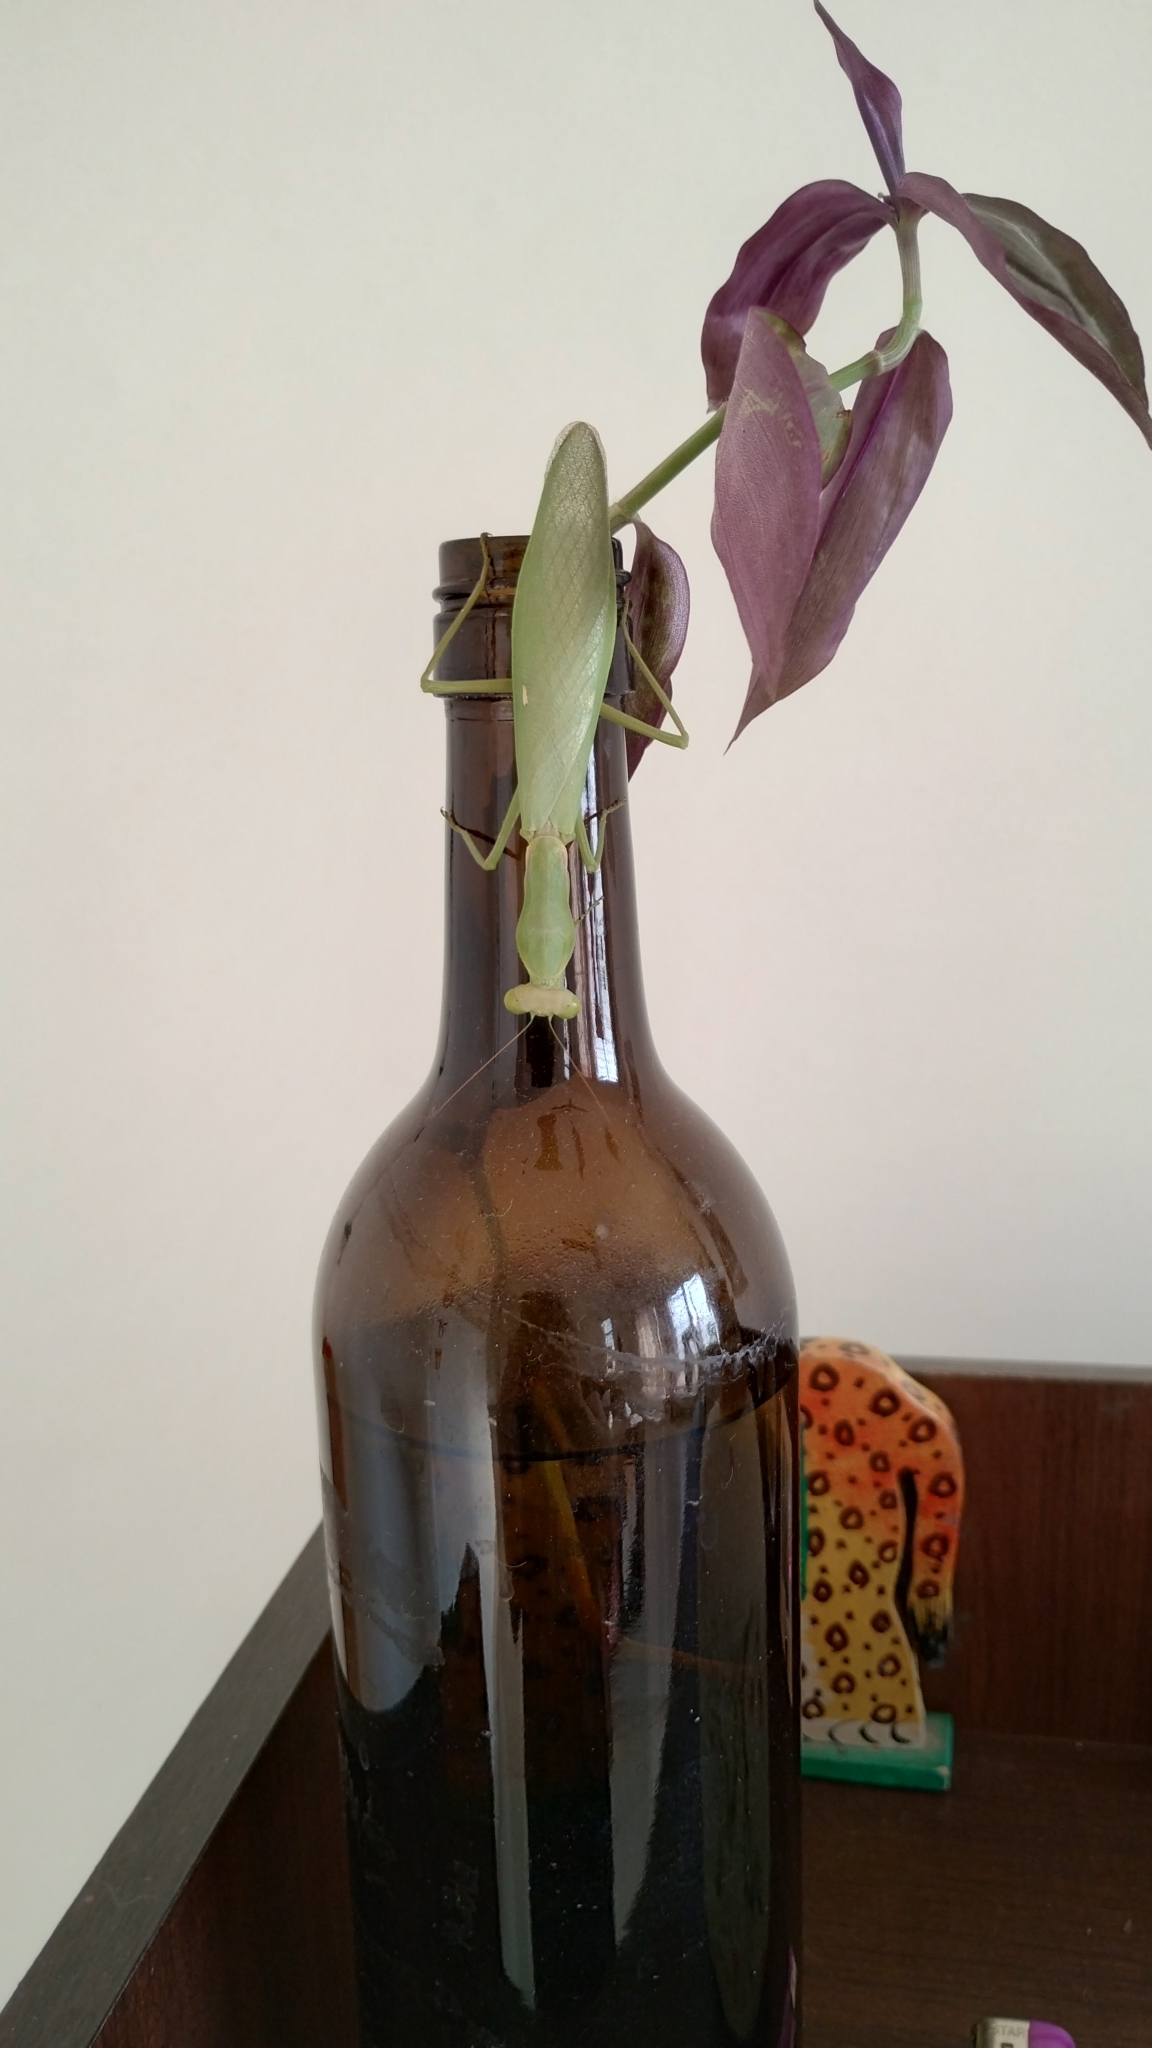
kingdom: Animalia
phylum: Arthropoda
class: Insecta
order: Mantodea
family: Mantidae
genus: Hierodula
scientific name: Hierodula tenuidentata
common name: Giant asian mantis
